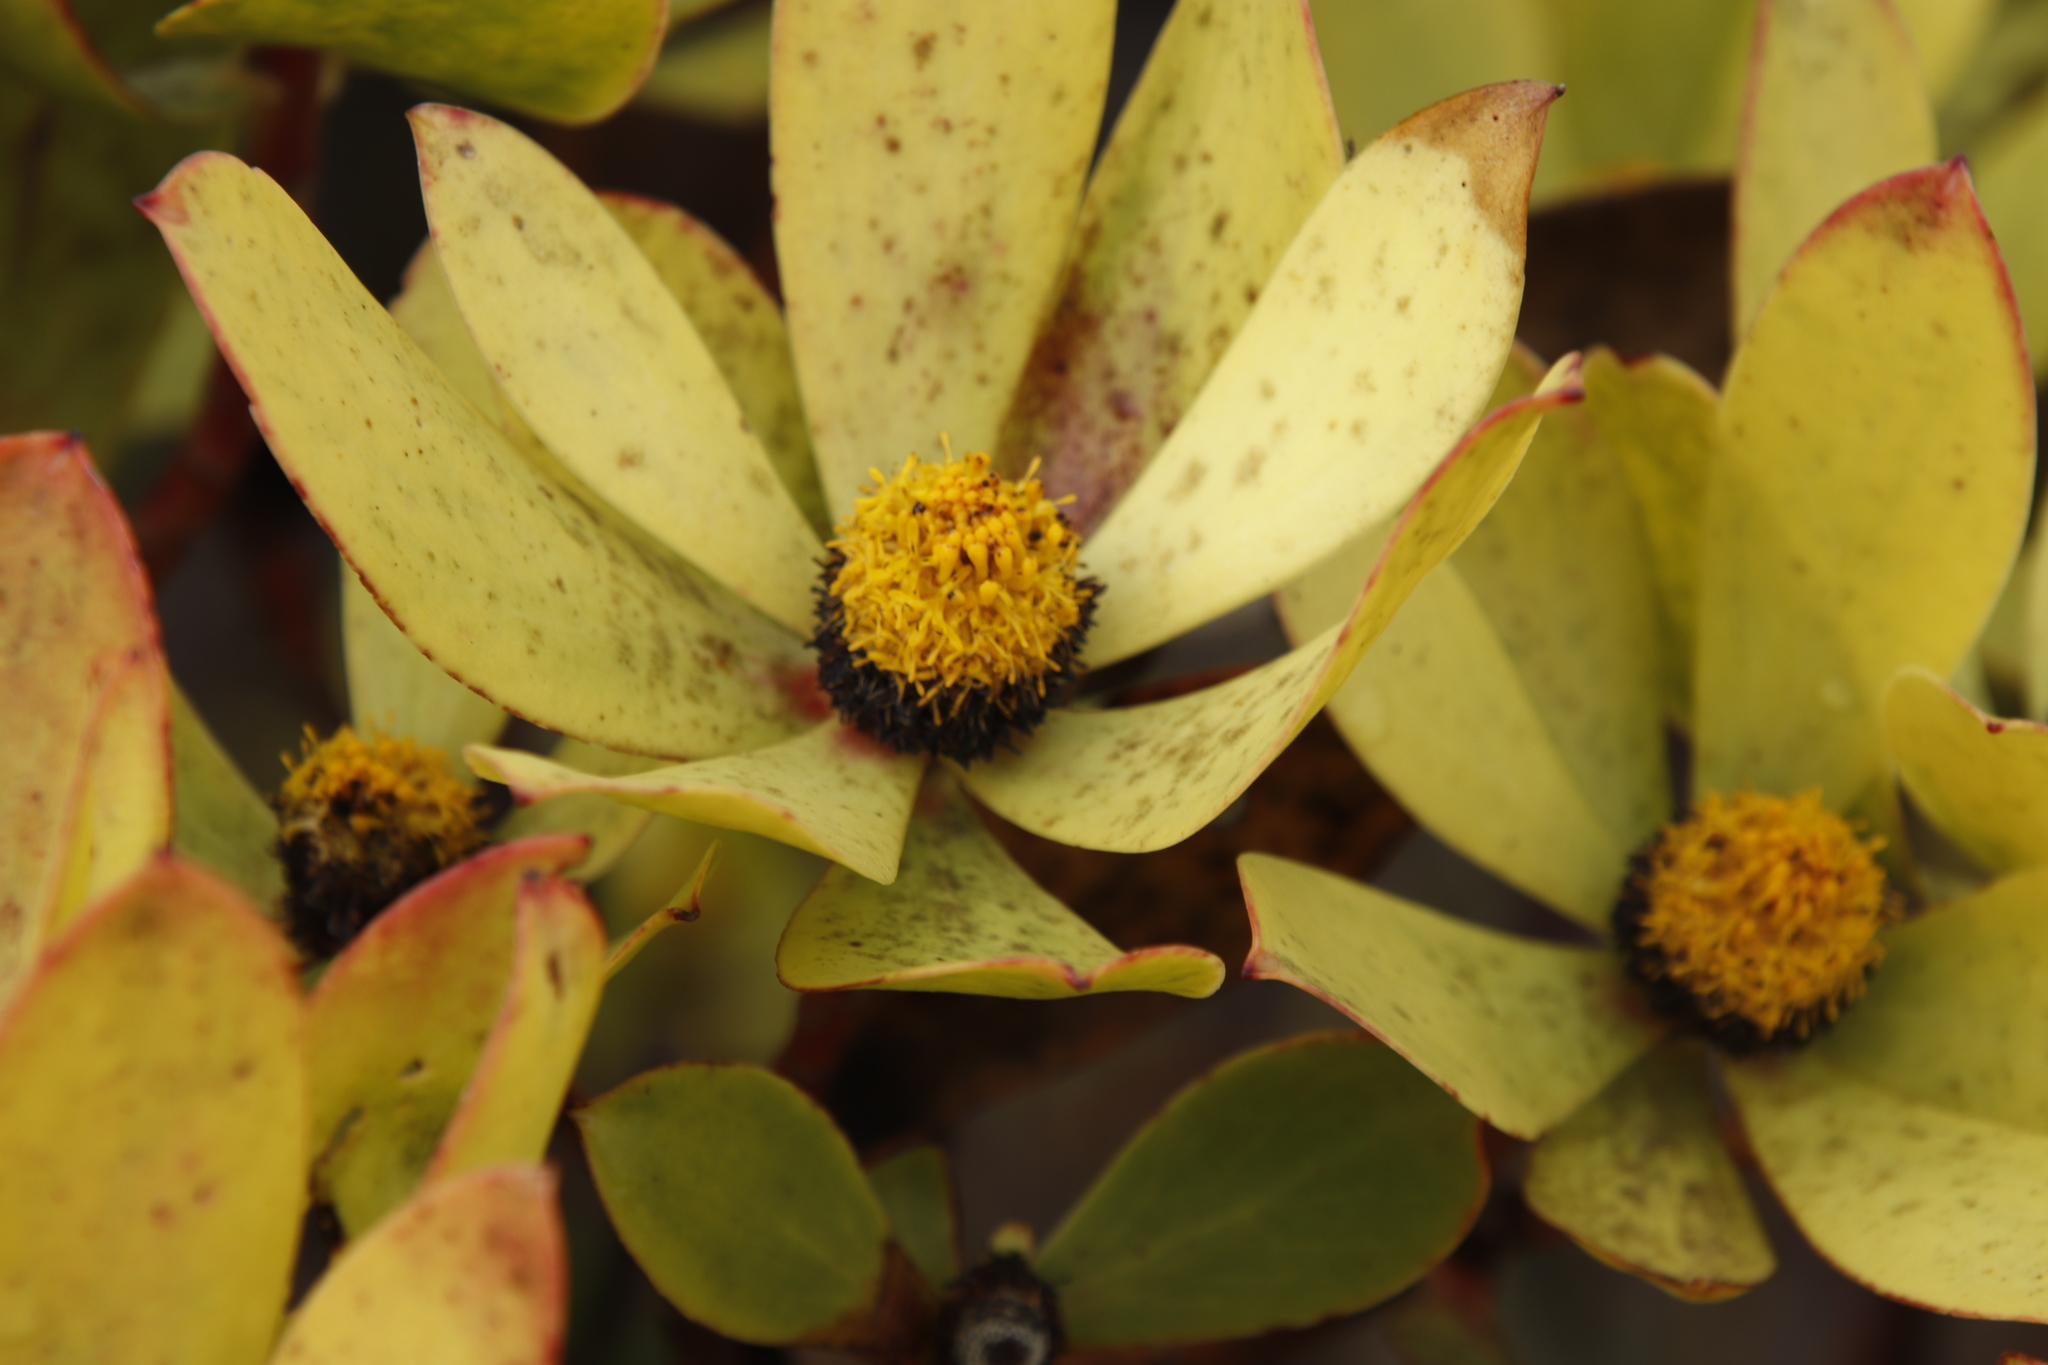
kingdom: Plantae
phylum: Tracheophyta
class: Magnoliopsida
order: Proteales
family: Proteaceae
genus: Leucadendron
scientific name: Leucadendron gandogeri
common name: Broad-leaf conebush
